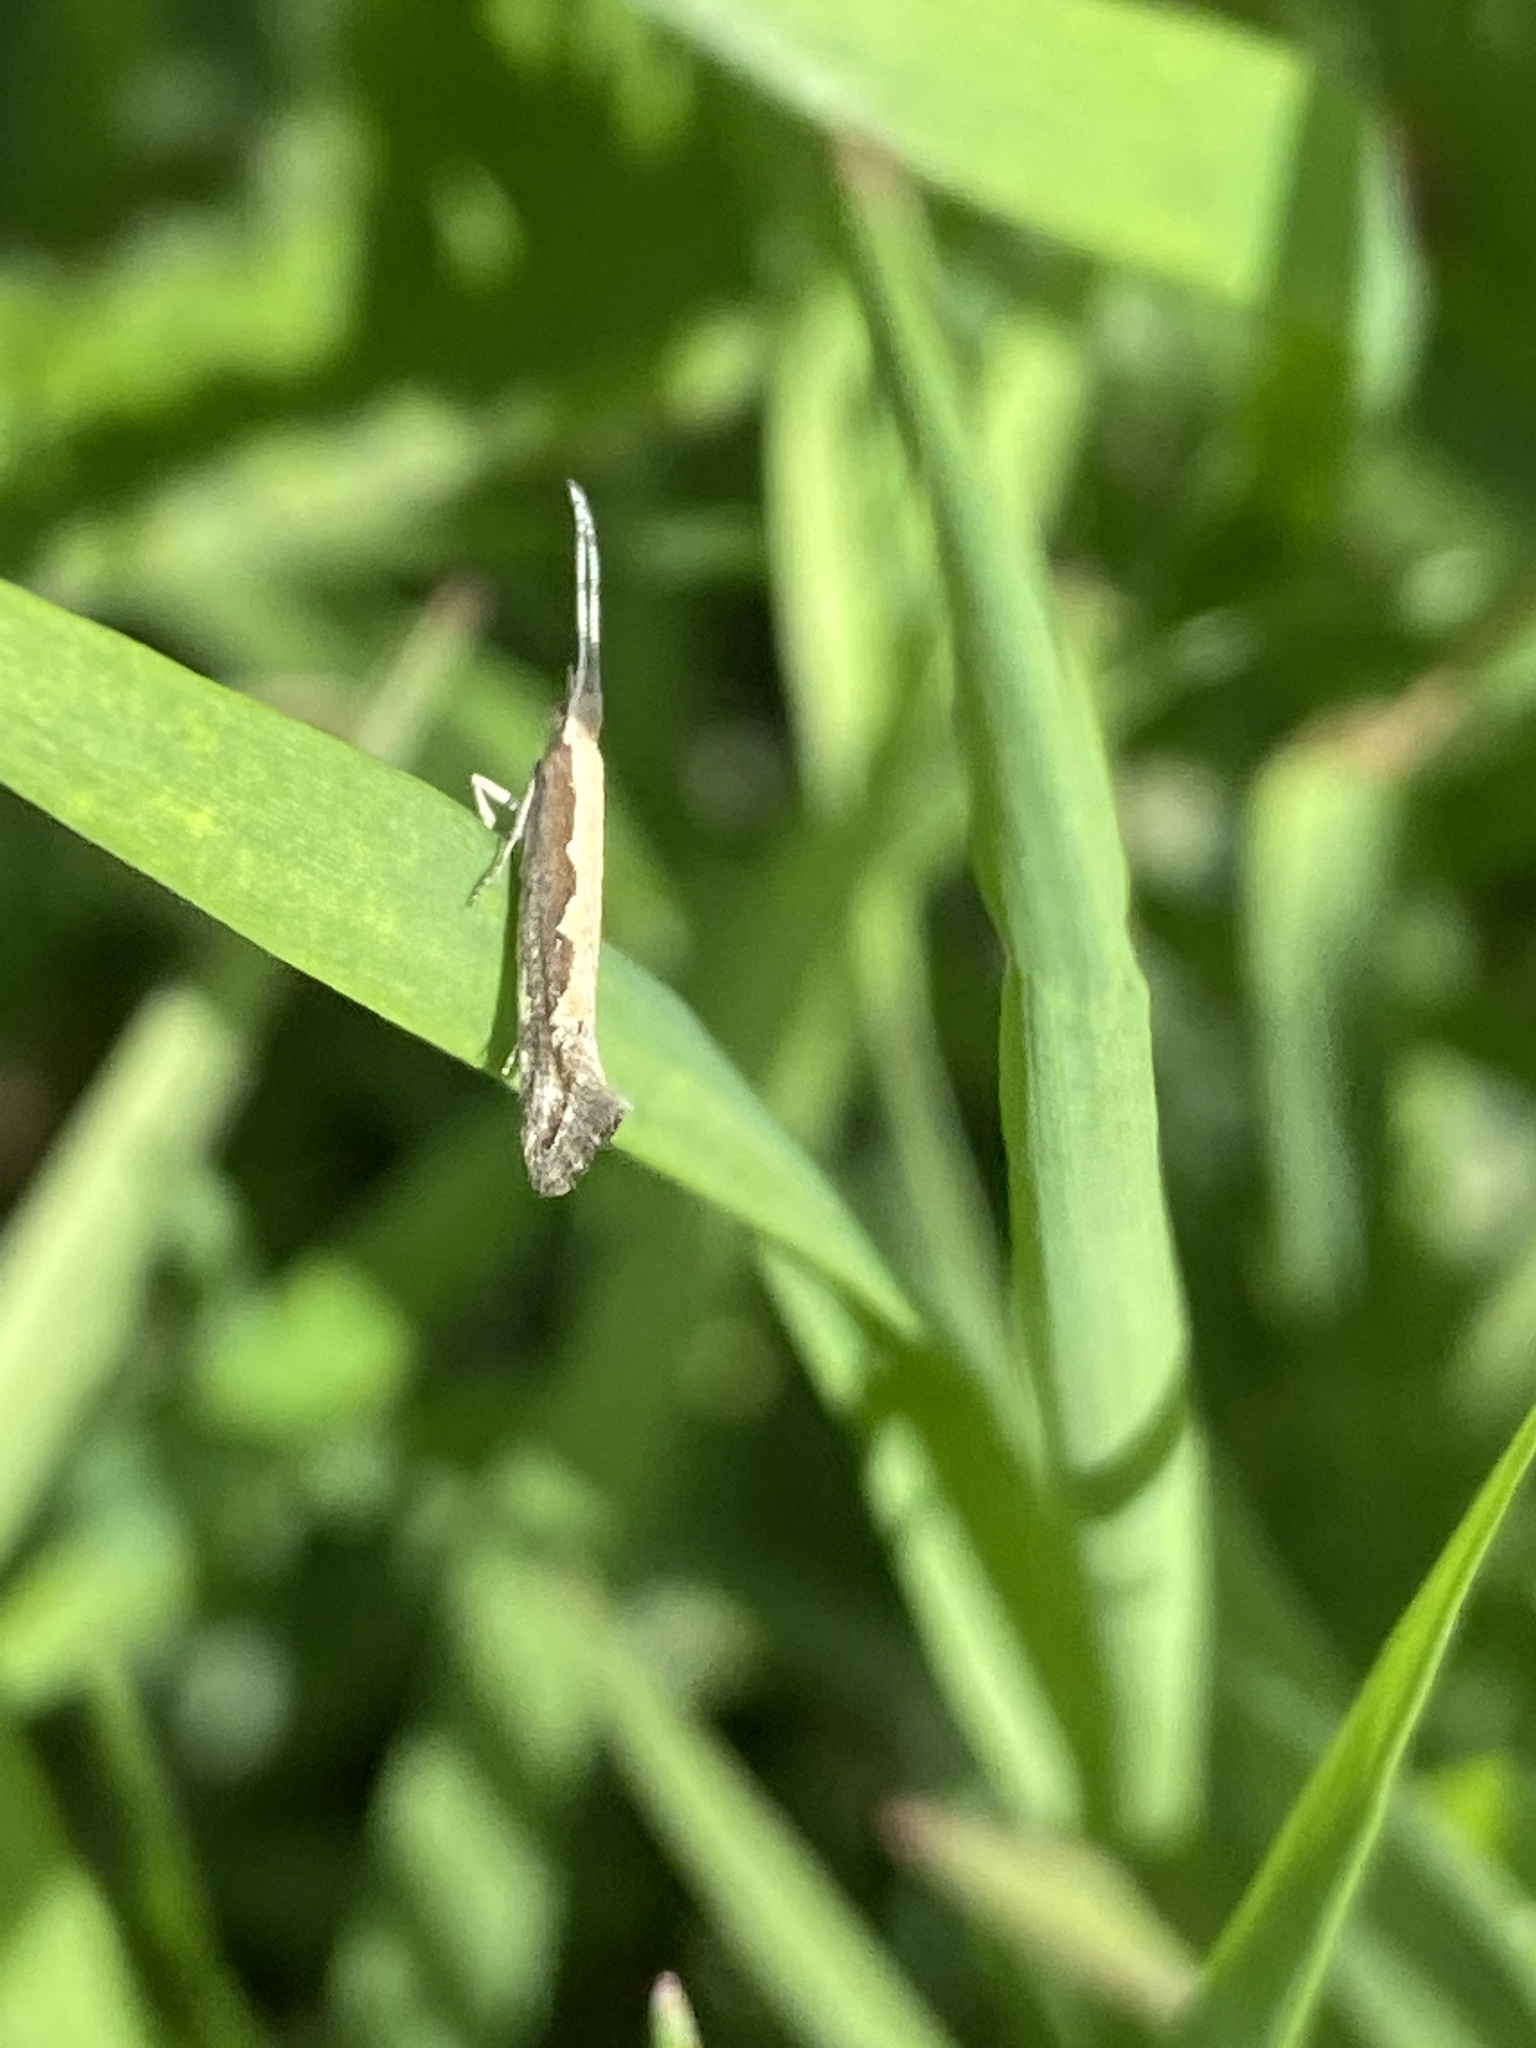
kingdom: Animalia
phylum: Arthropoda
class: Insecta
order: Lepidoptera
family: Plutellidae
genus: Plutella
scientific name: Plutella xylostella
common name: Diamond-back moth
